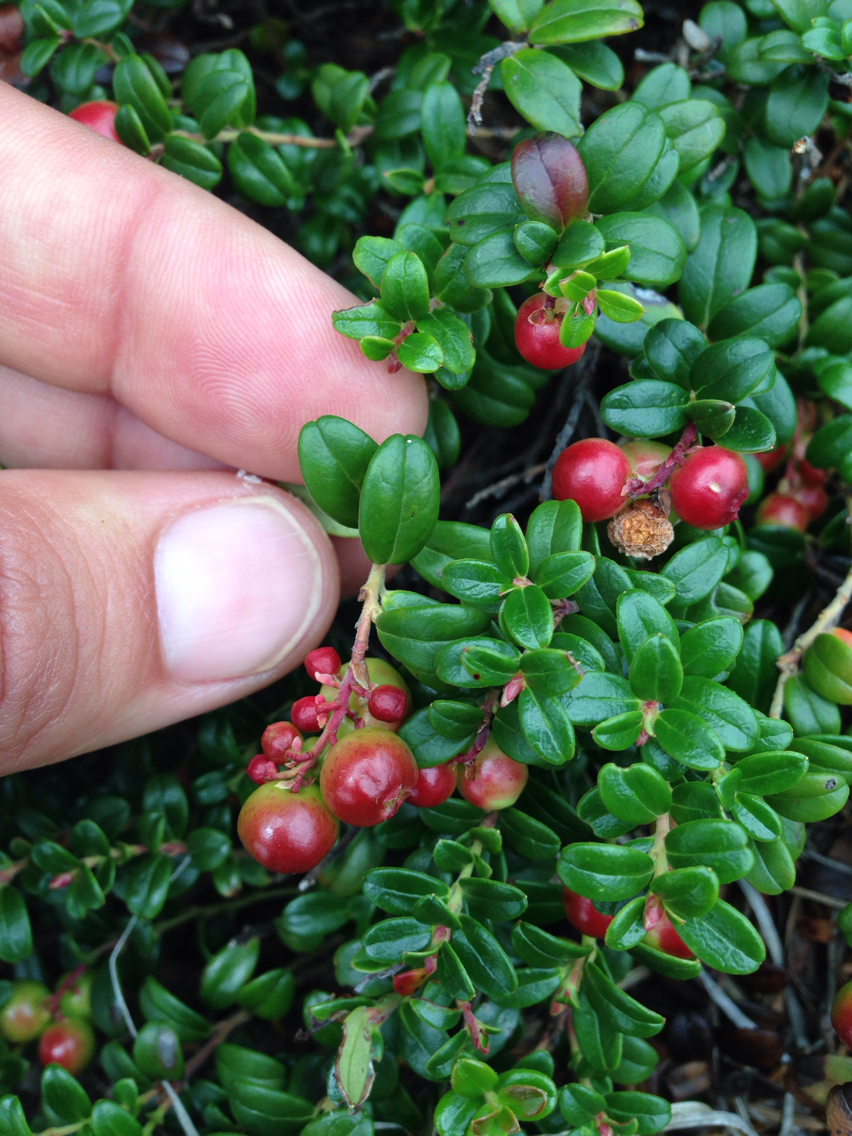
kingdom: Plantae
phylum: Tracheophyta
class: Magnoliopsida
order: Ericales
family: Ericaceae
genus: Vaccinium
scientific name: Vaccinium vitis-idaea
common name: Cowberry
